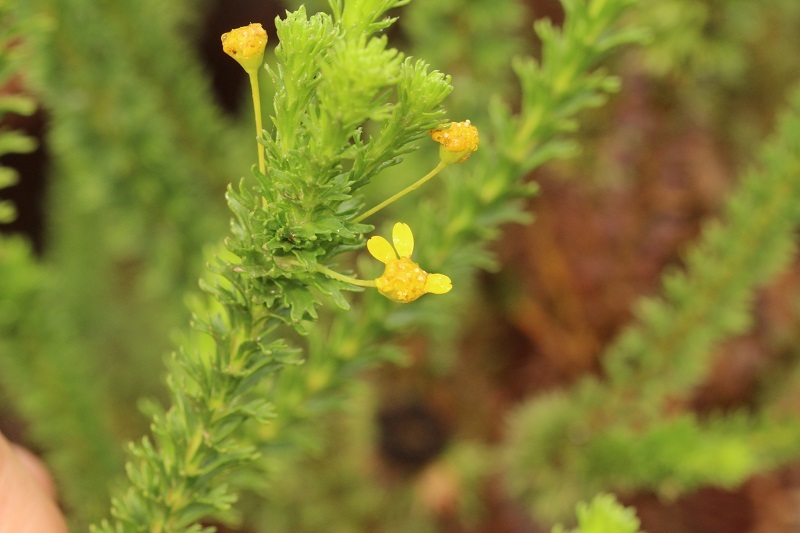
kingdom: Plantae
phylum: Tracheophyta
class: Magnoliopsida
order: Asterales
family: Asteraceae
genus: Euryops
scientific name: Euryops virgineus
